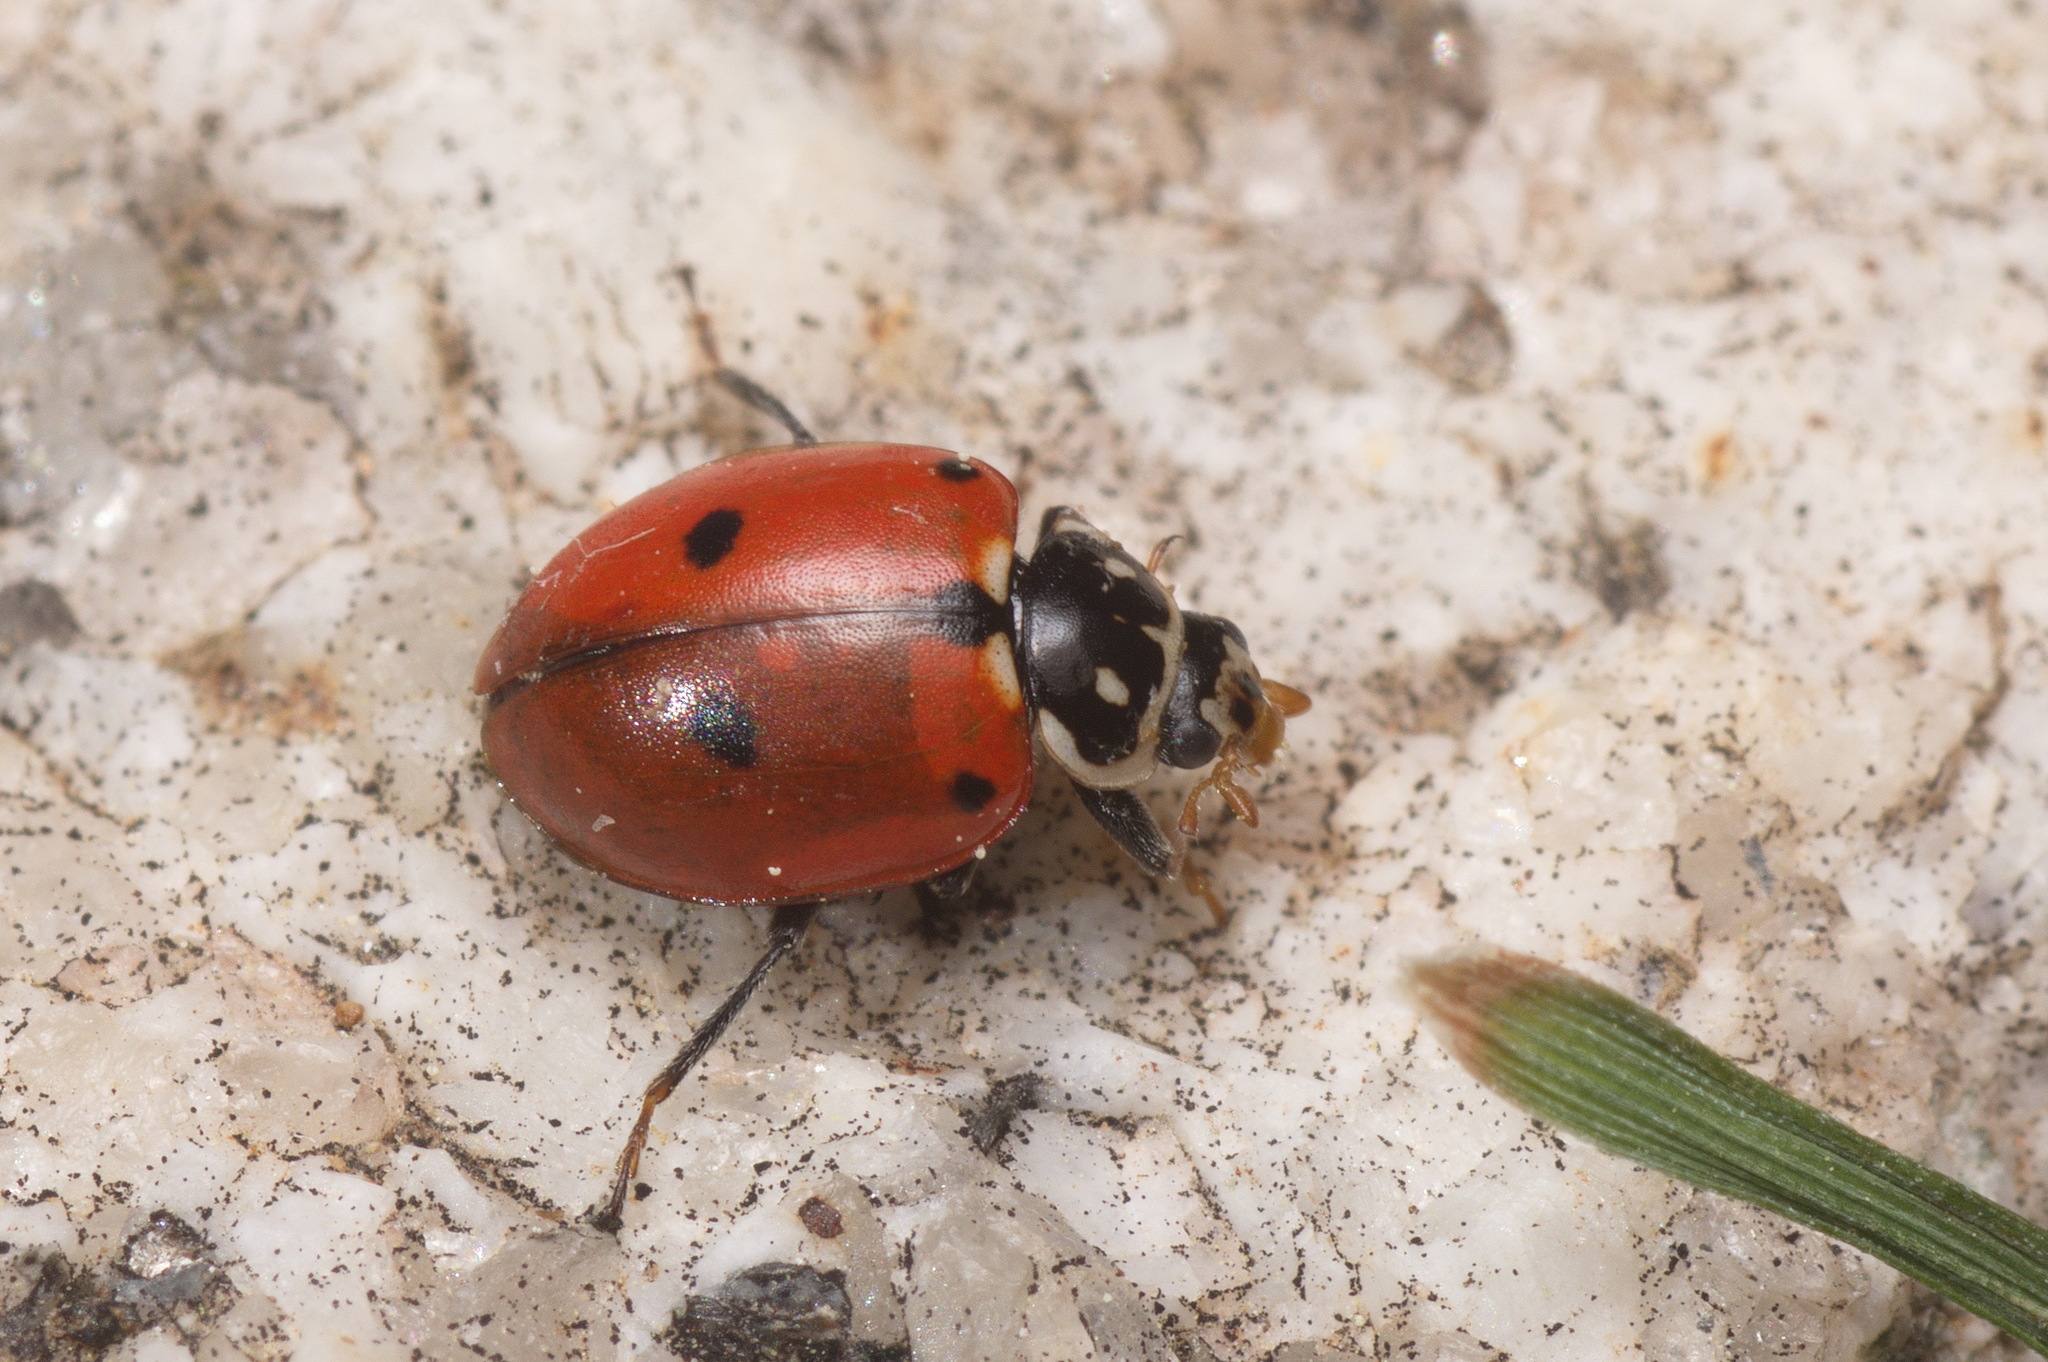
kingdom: Animalia
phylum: Arthropoda
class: Insecta
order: Coleoptera
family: Coccinellidae
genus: Hippodamia
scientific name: Hippodamia variegata
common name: Ladybird beetle
